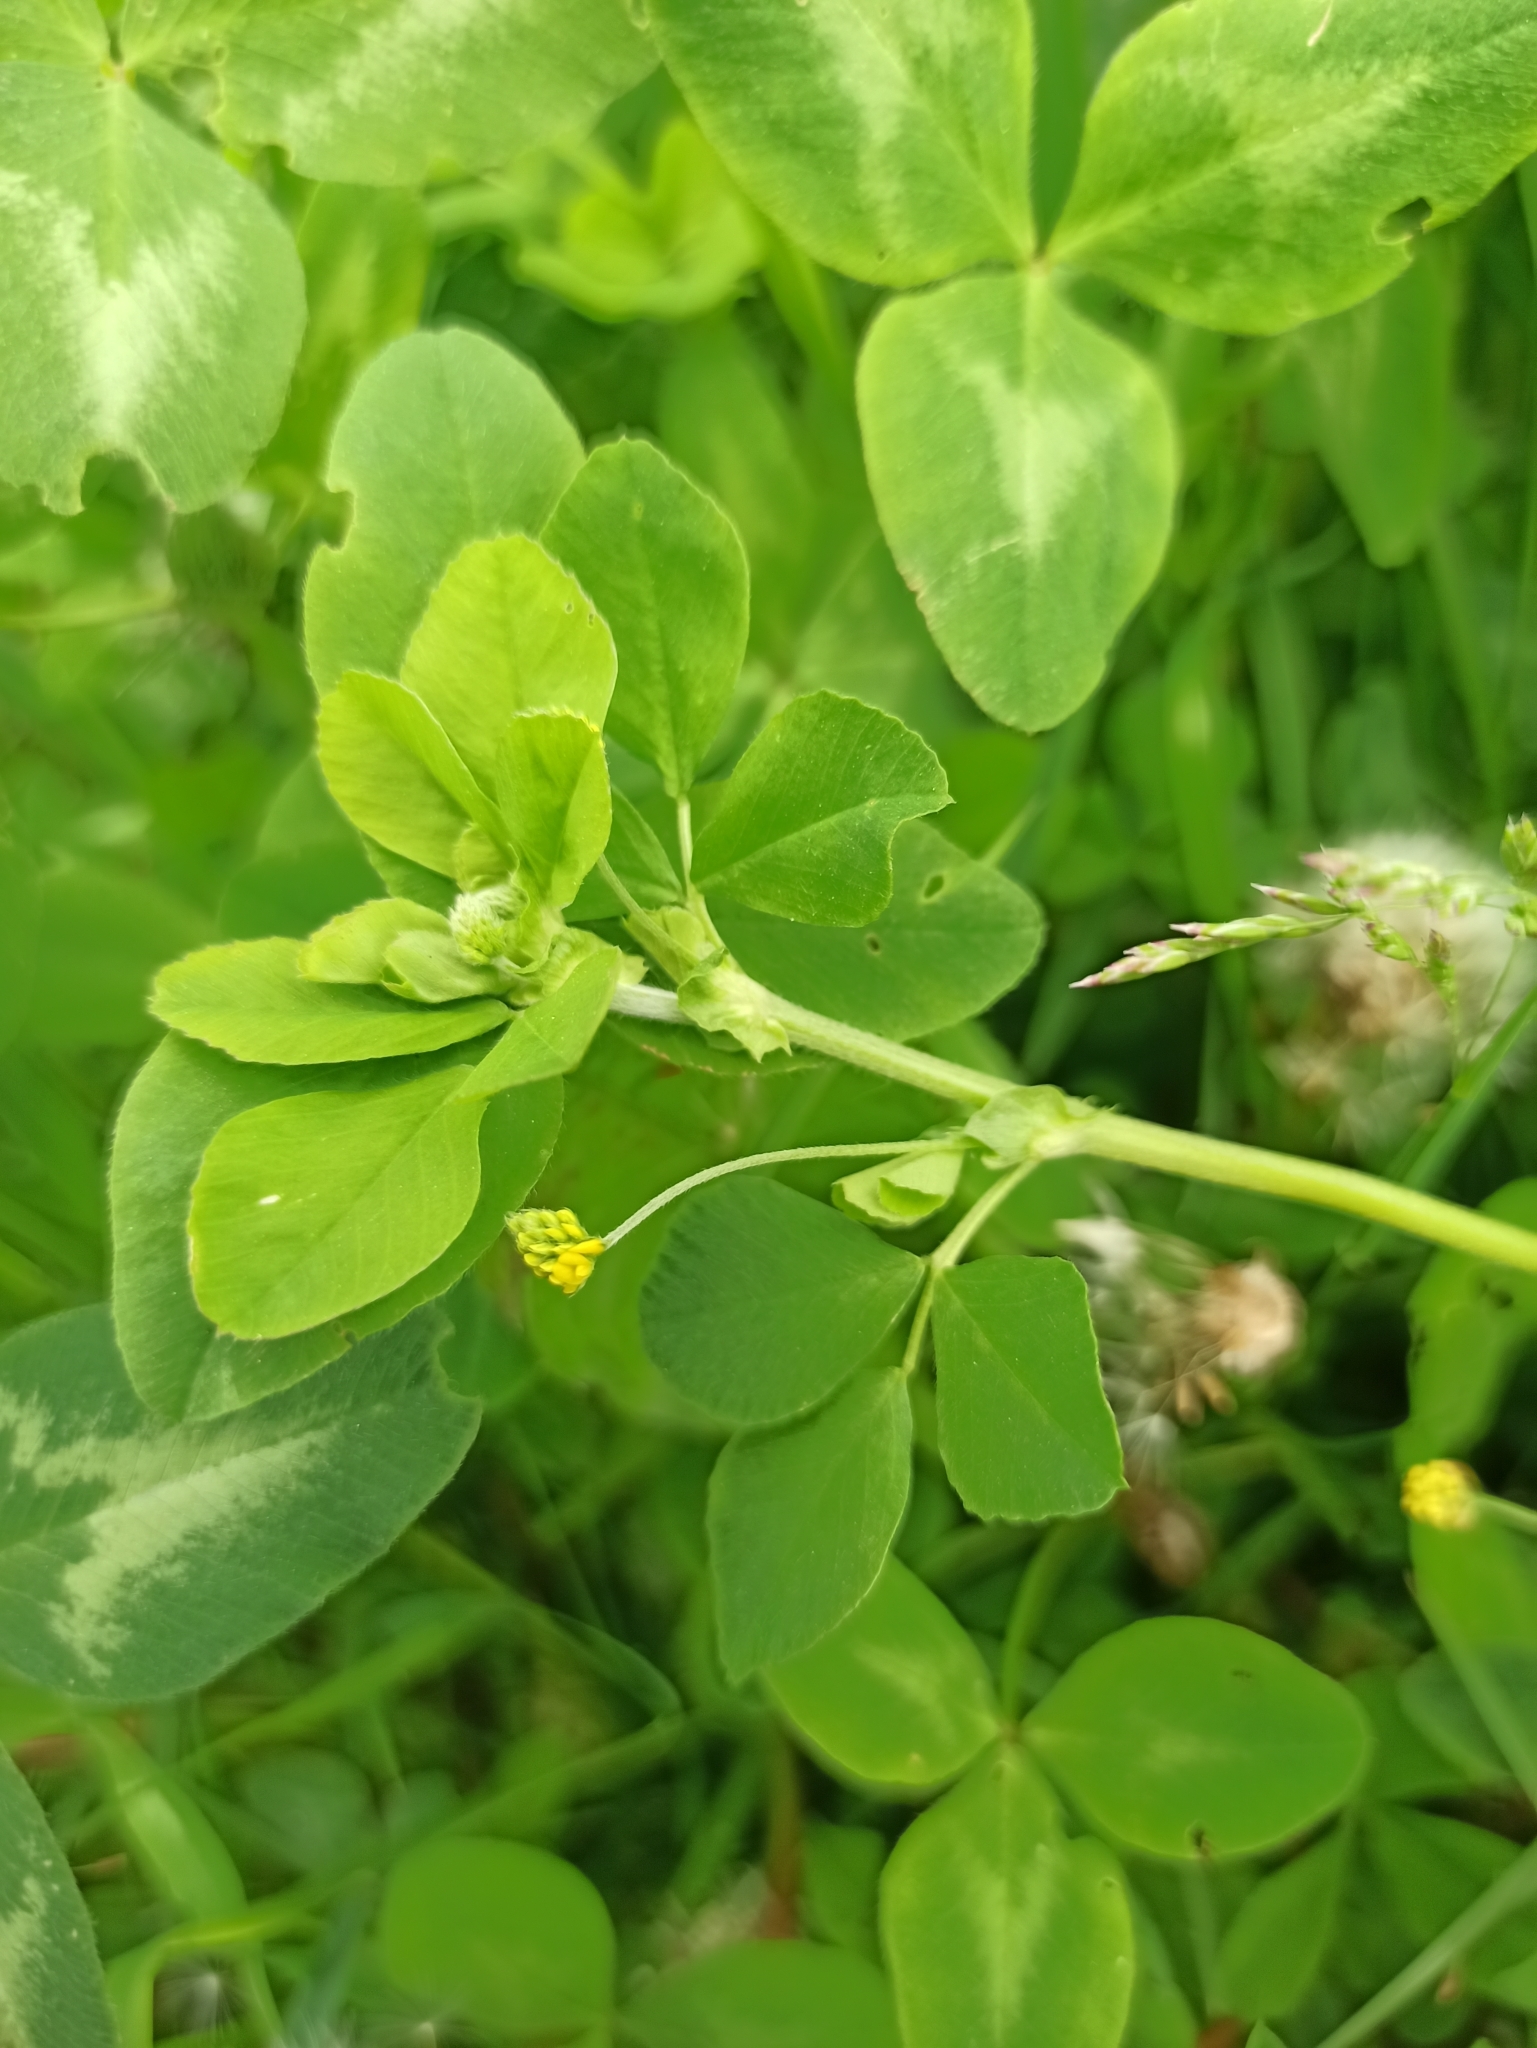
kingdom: Plantae
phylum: Tracheophyta
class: Magnoliopsida
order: Fabales
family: Fabaceae
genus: Medicago
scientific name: Medicago lupulina
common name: Black medick
